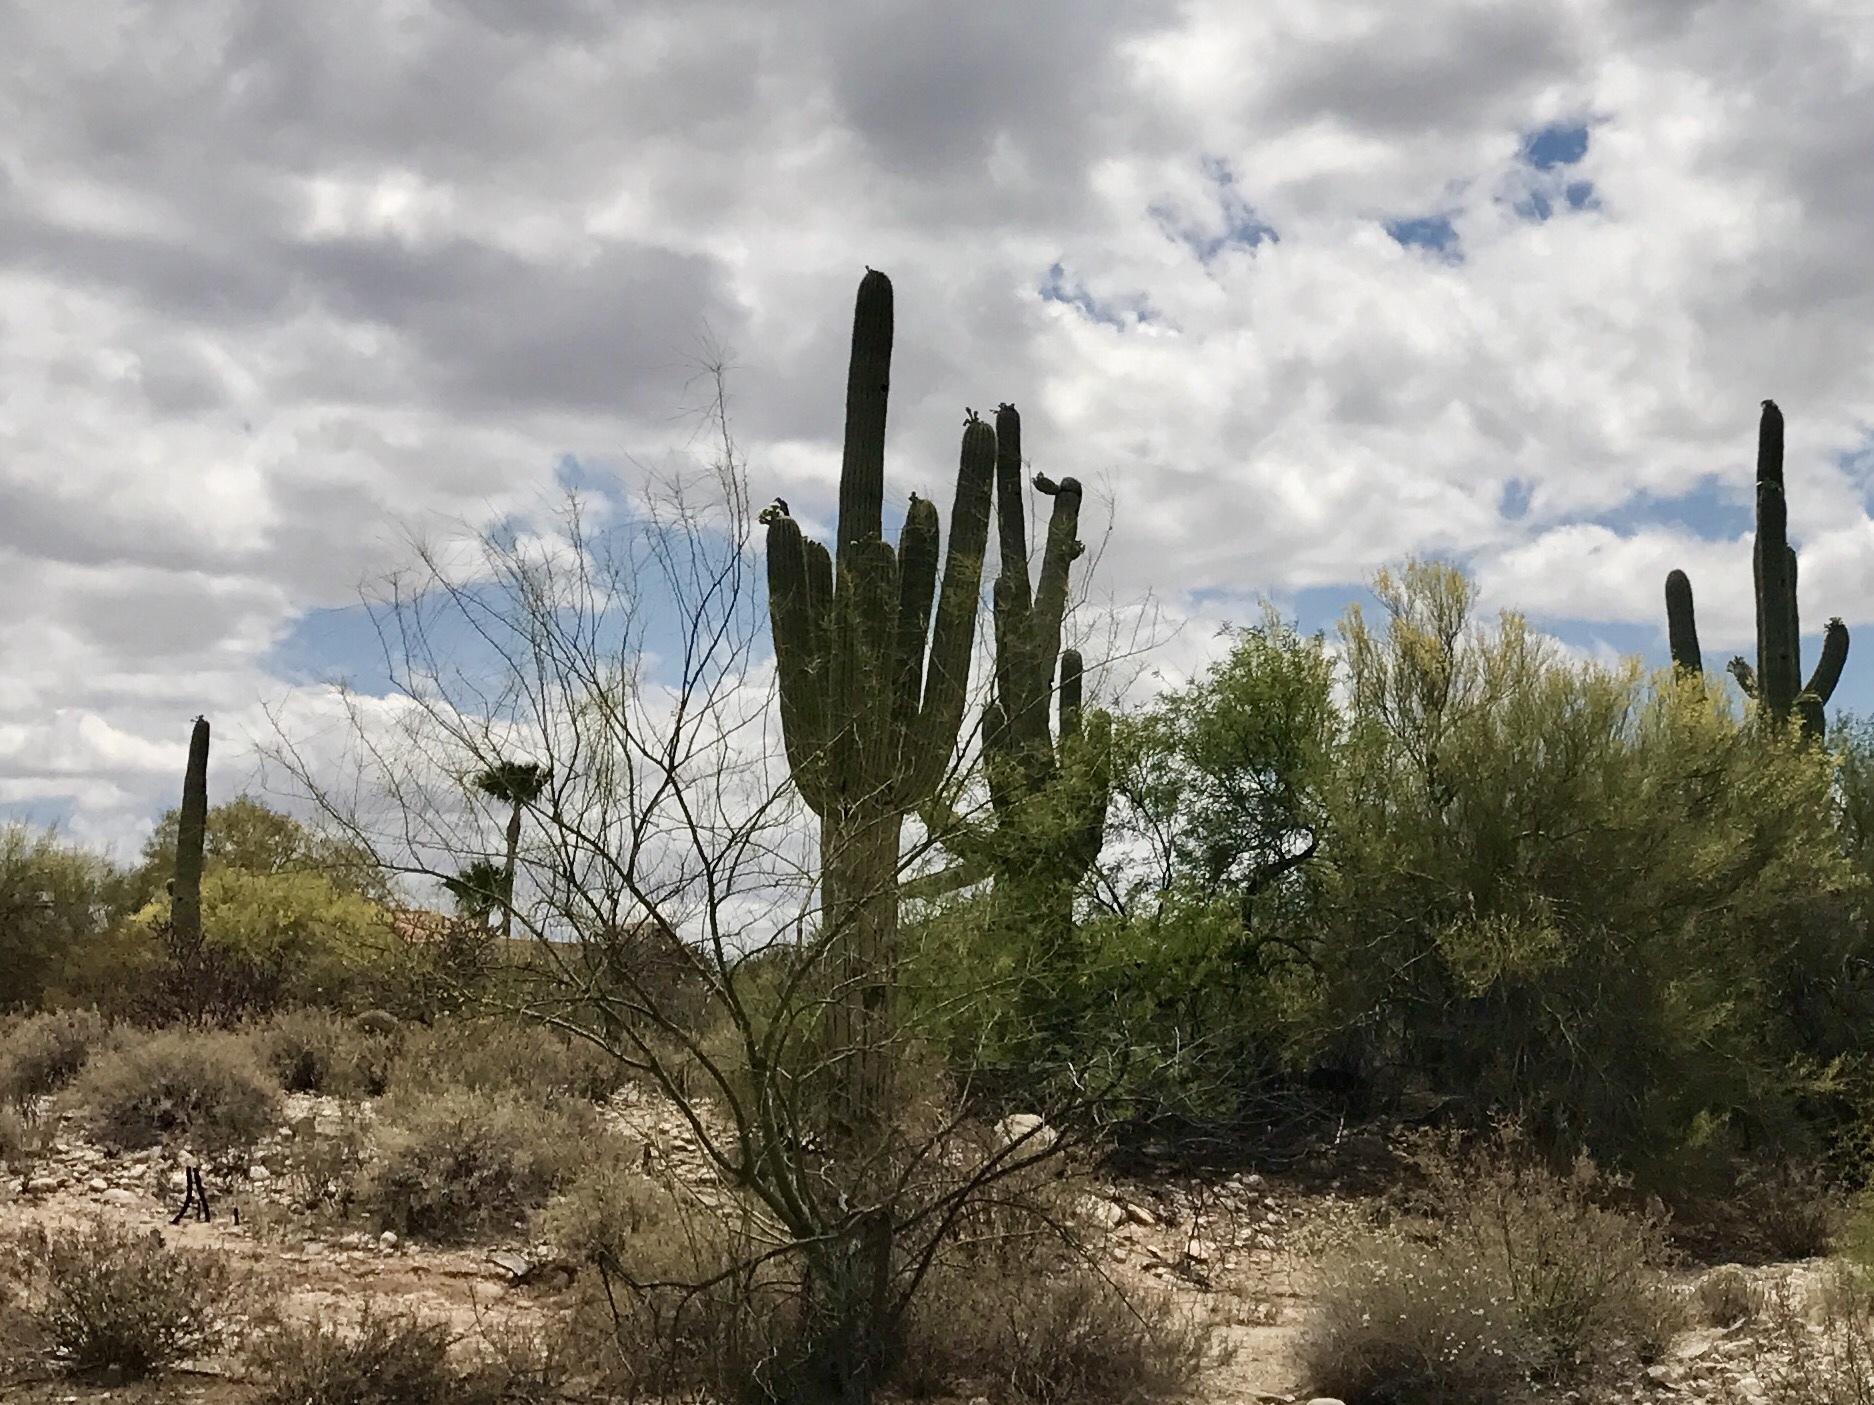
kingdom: Plantae
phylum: Tracheophyta
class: Magnoliopsida
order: Caryophyllales
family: Cactaceae
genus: Carnegiea
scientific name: Carnegiea gigantea
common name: Saguaro
